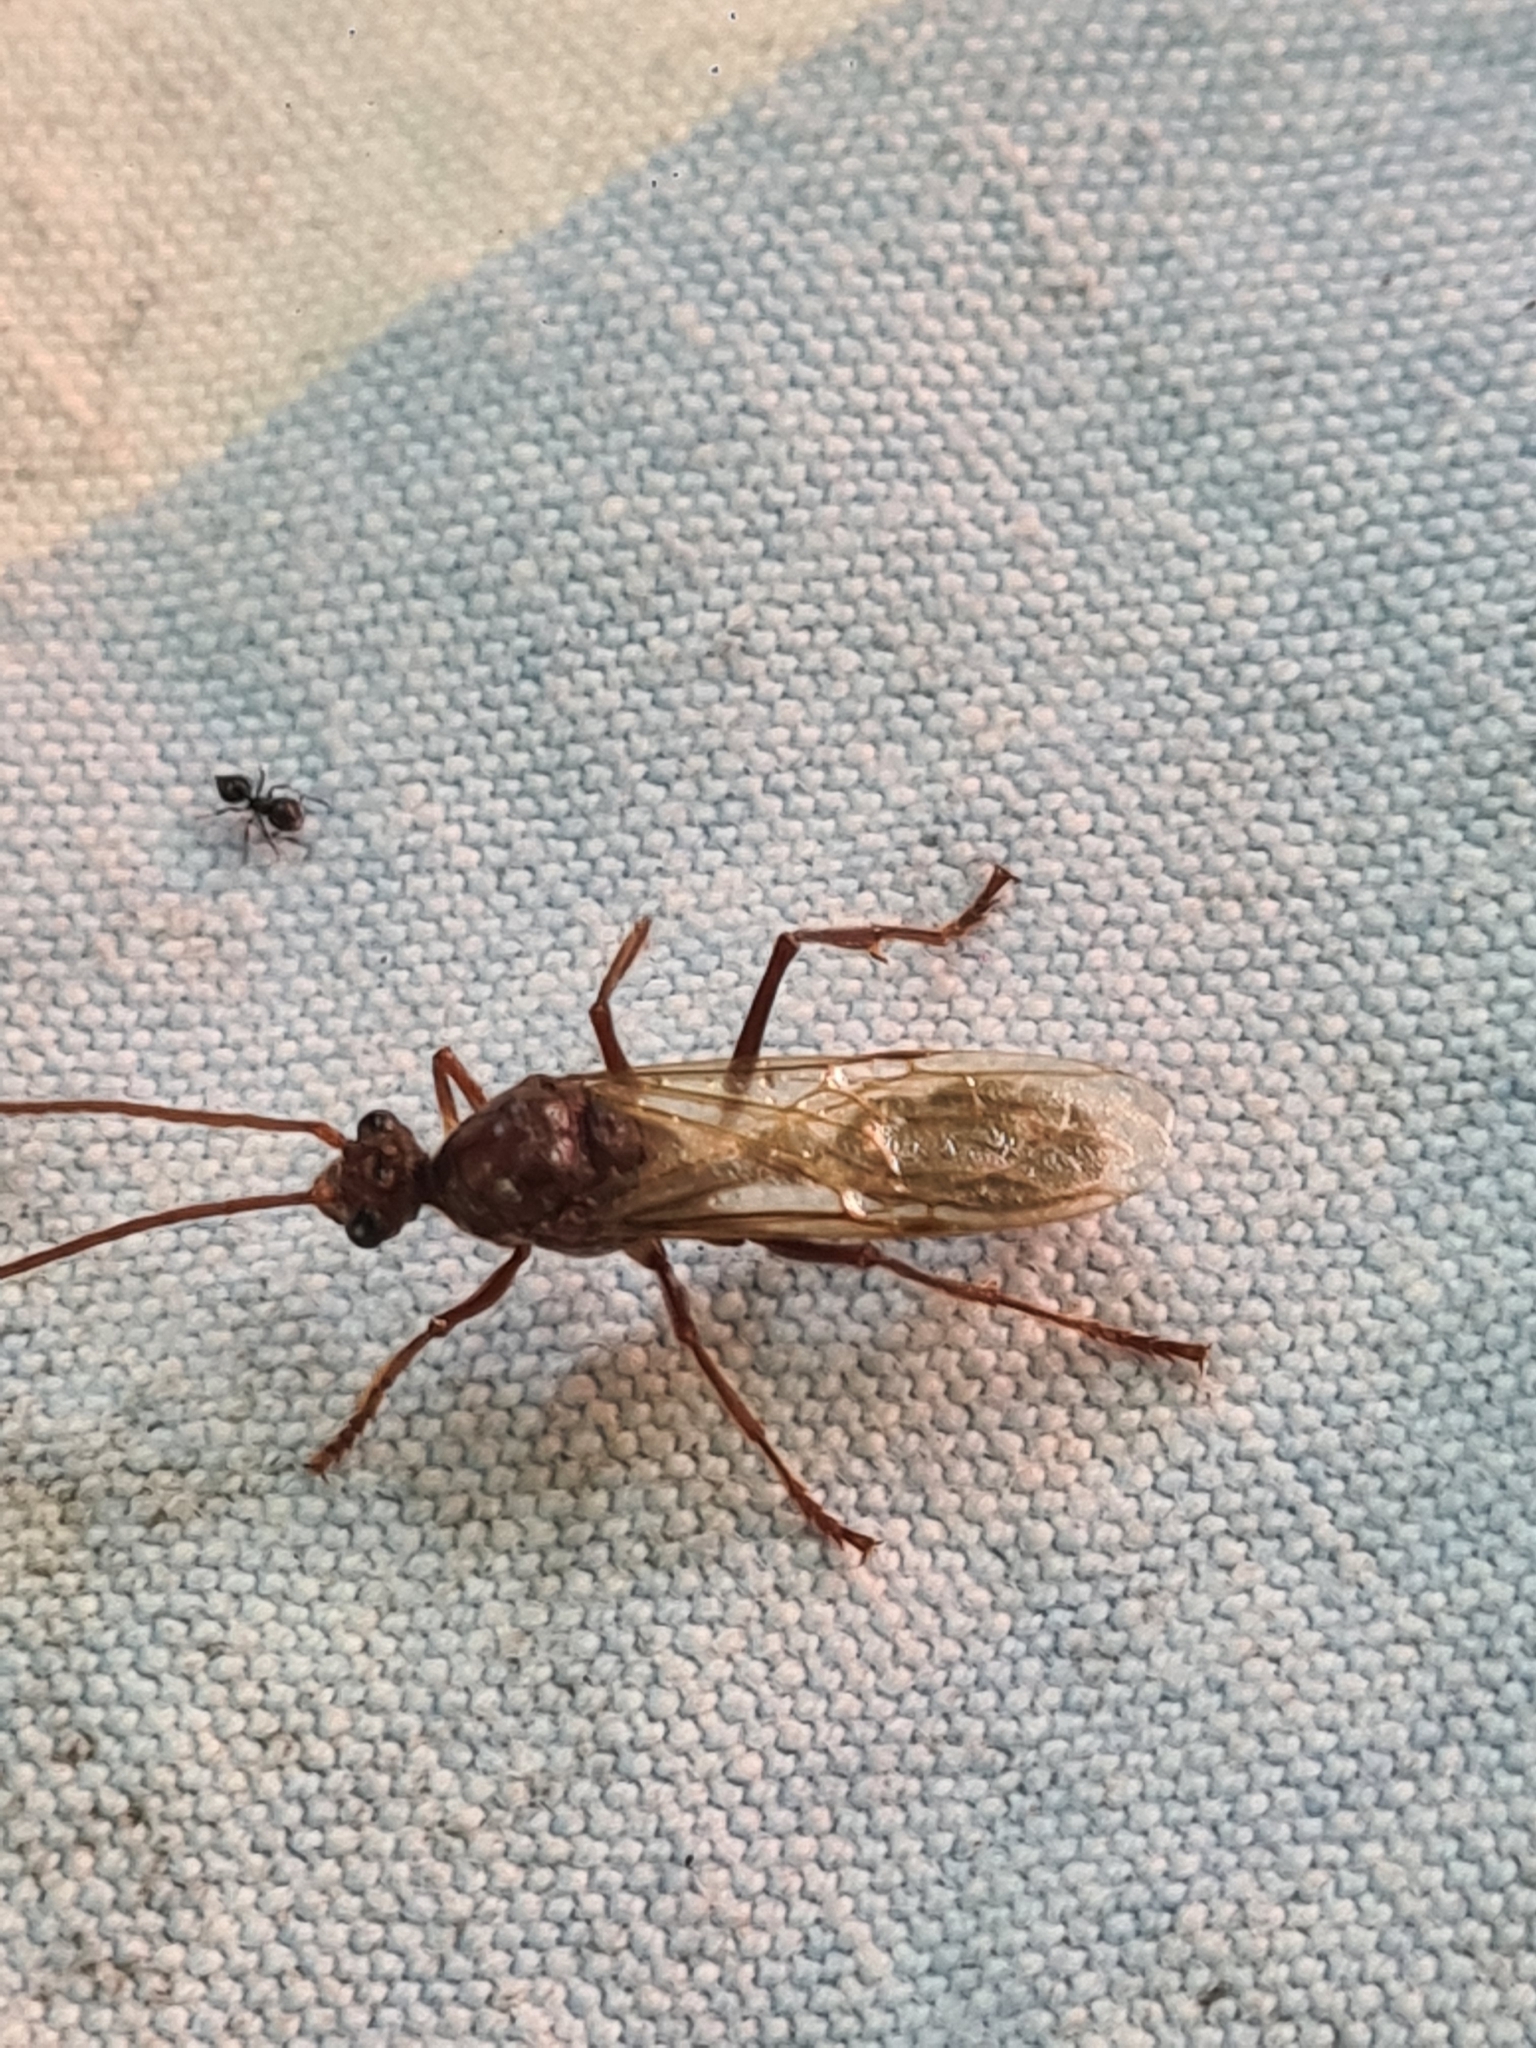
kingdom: Animalia
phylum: Arthropoda
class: Insecta
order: Hymenoptera
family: Formicidae
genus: Paraponera
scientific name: Paraponera clavata
